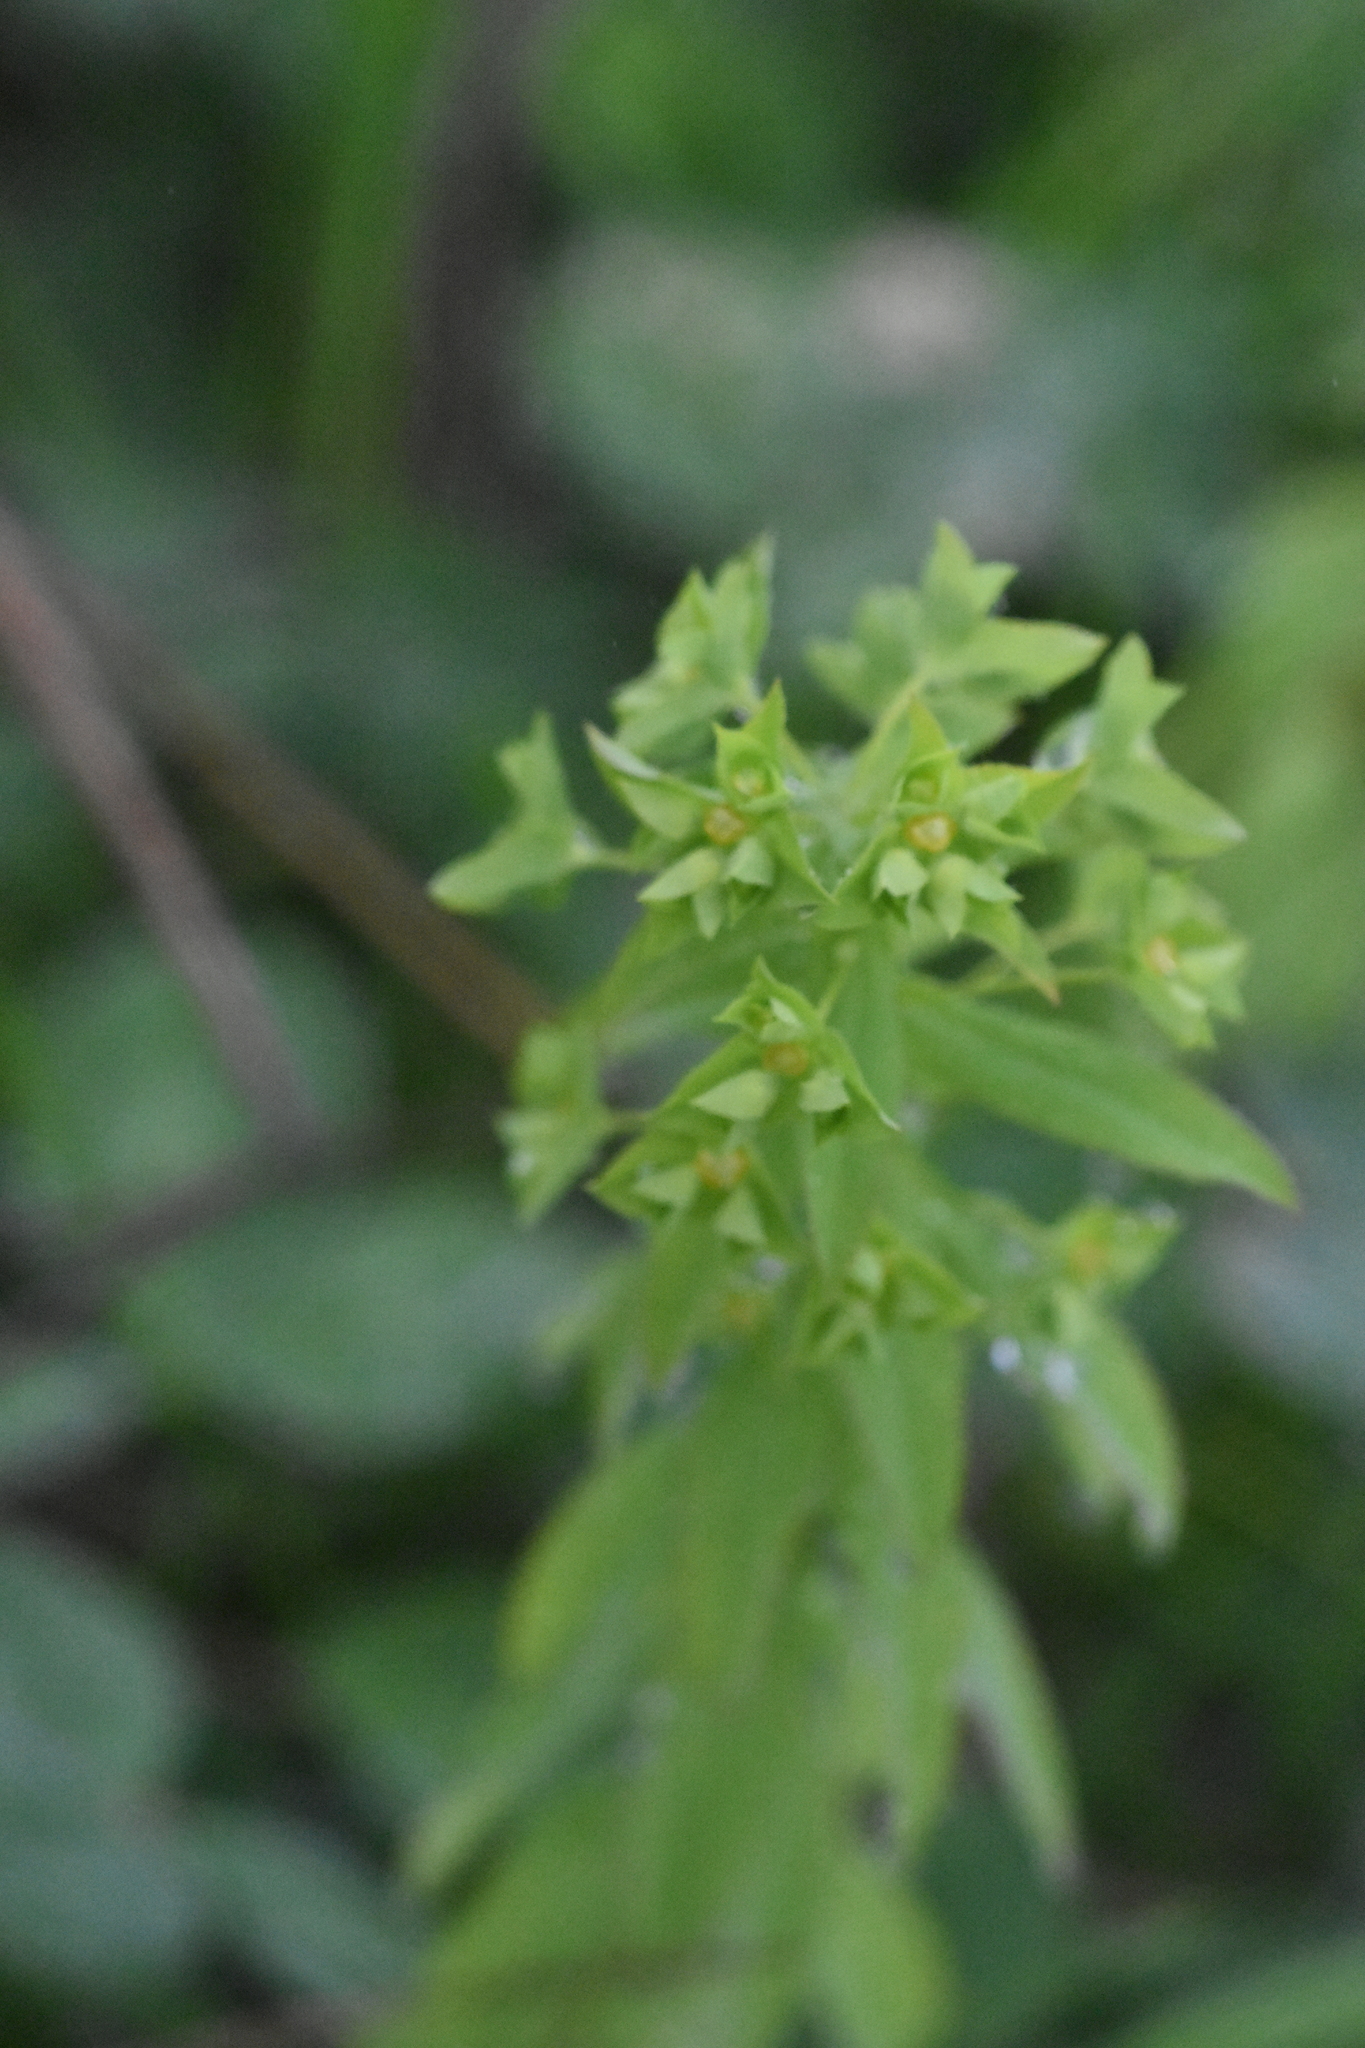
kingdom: Plantae
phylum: Tracheophyta
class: Magnoliopsida
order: Malpighiales
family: Euphorbiaceae
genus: Euphorbia
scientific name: Euphorbia stricta
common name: Upright spurge
